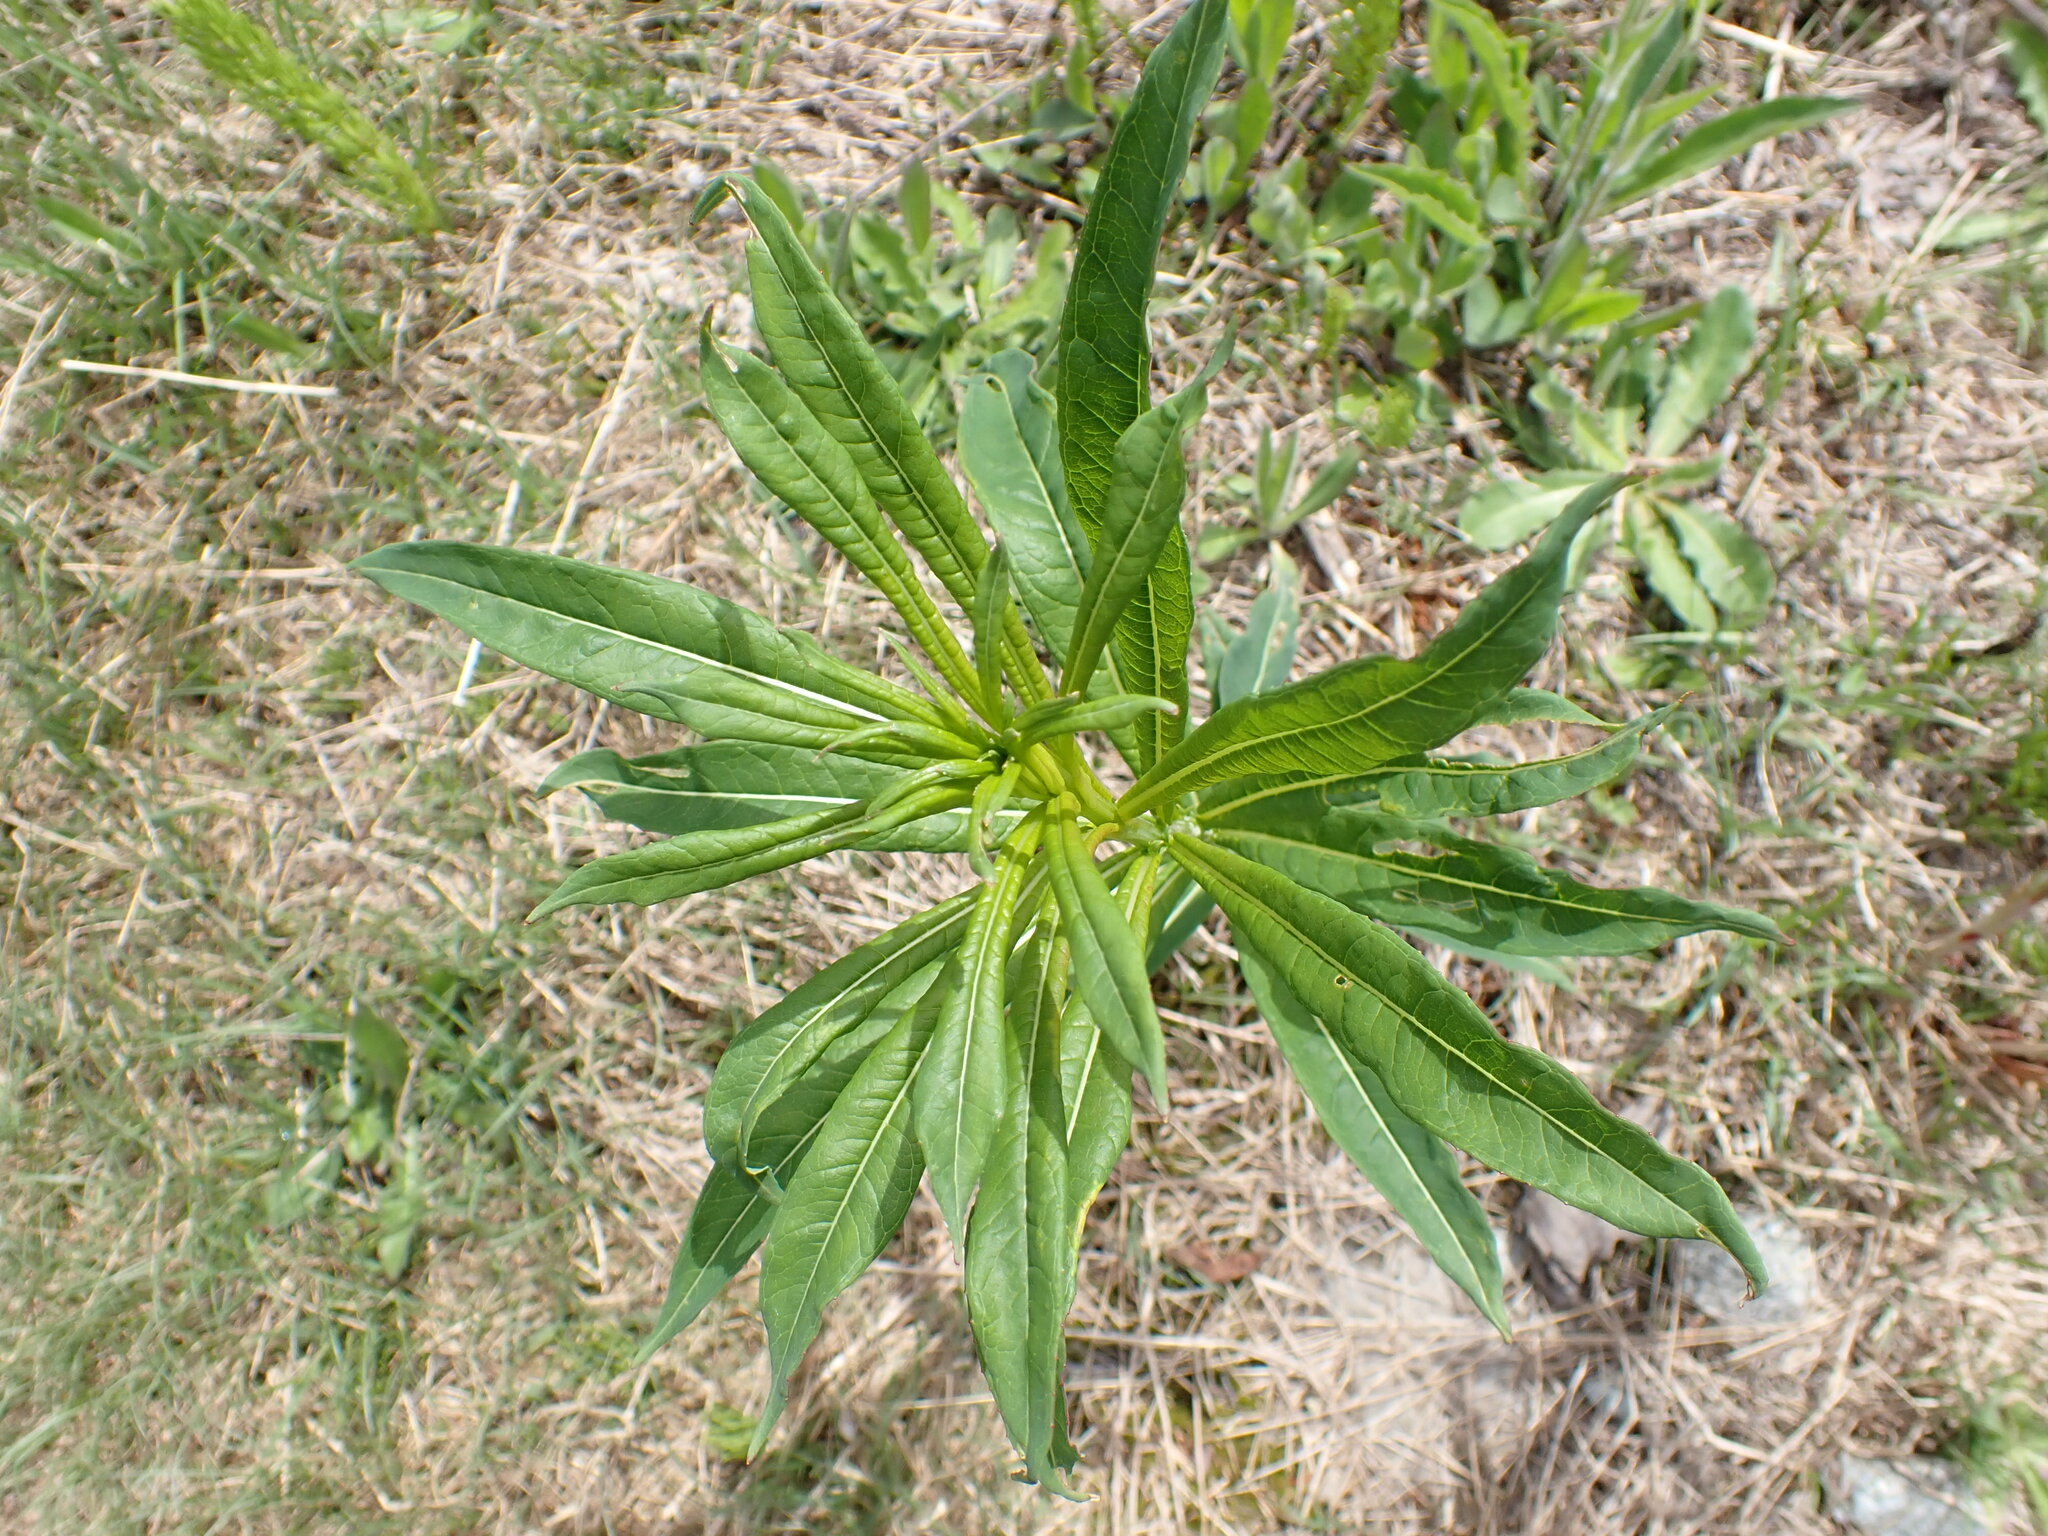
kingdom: Plantae
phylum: Tracheophyta
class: Magnoliopsida
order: Myrtales
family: Onagraceae
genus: Chamaenerion
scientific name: Chamaenerion angustifolium
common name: Fireweed
